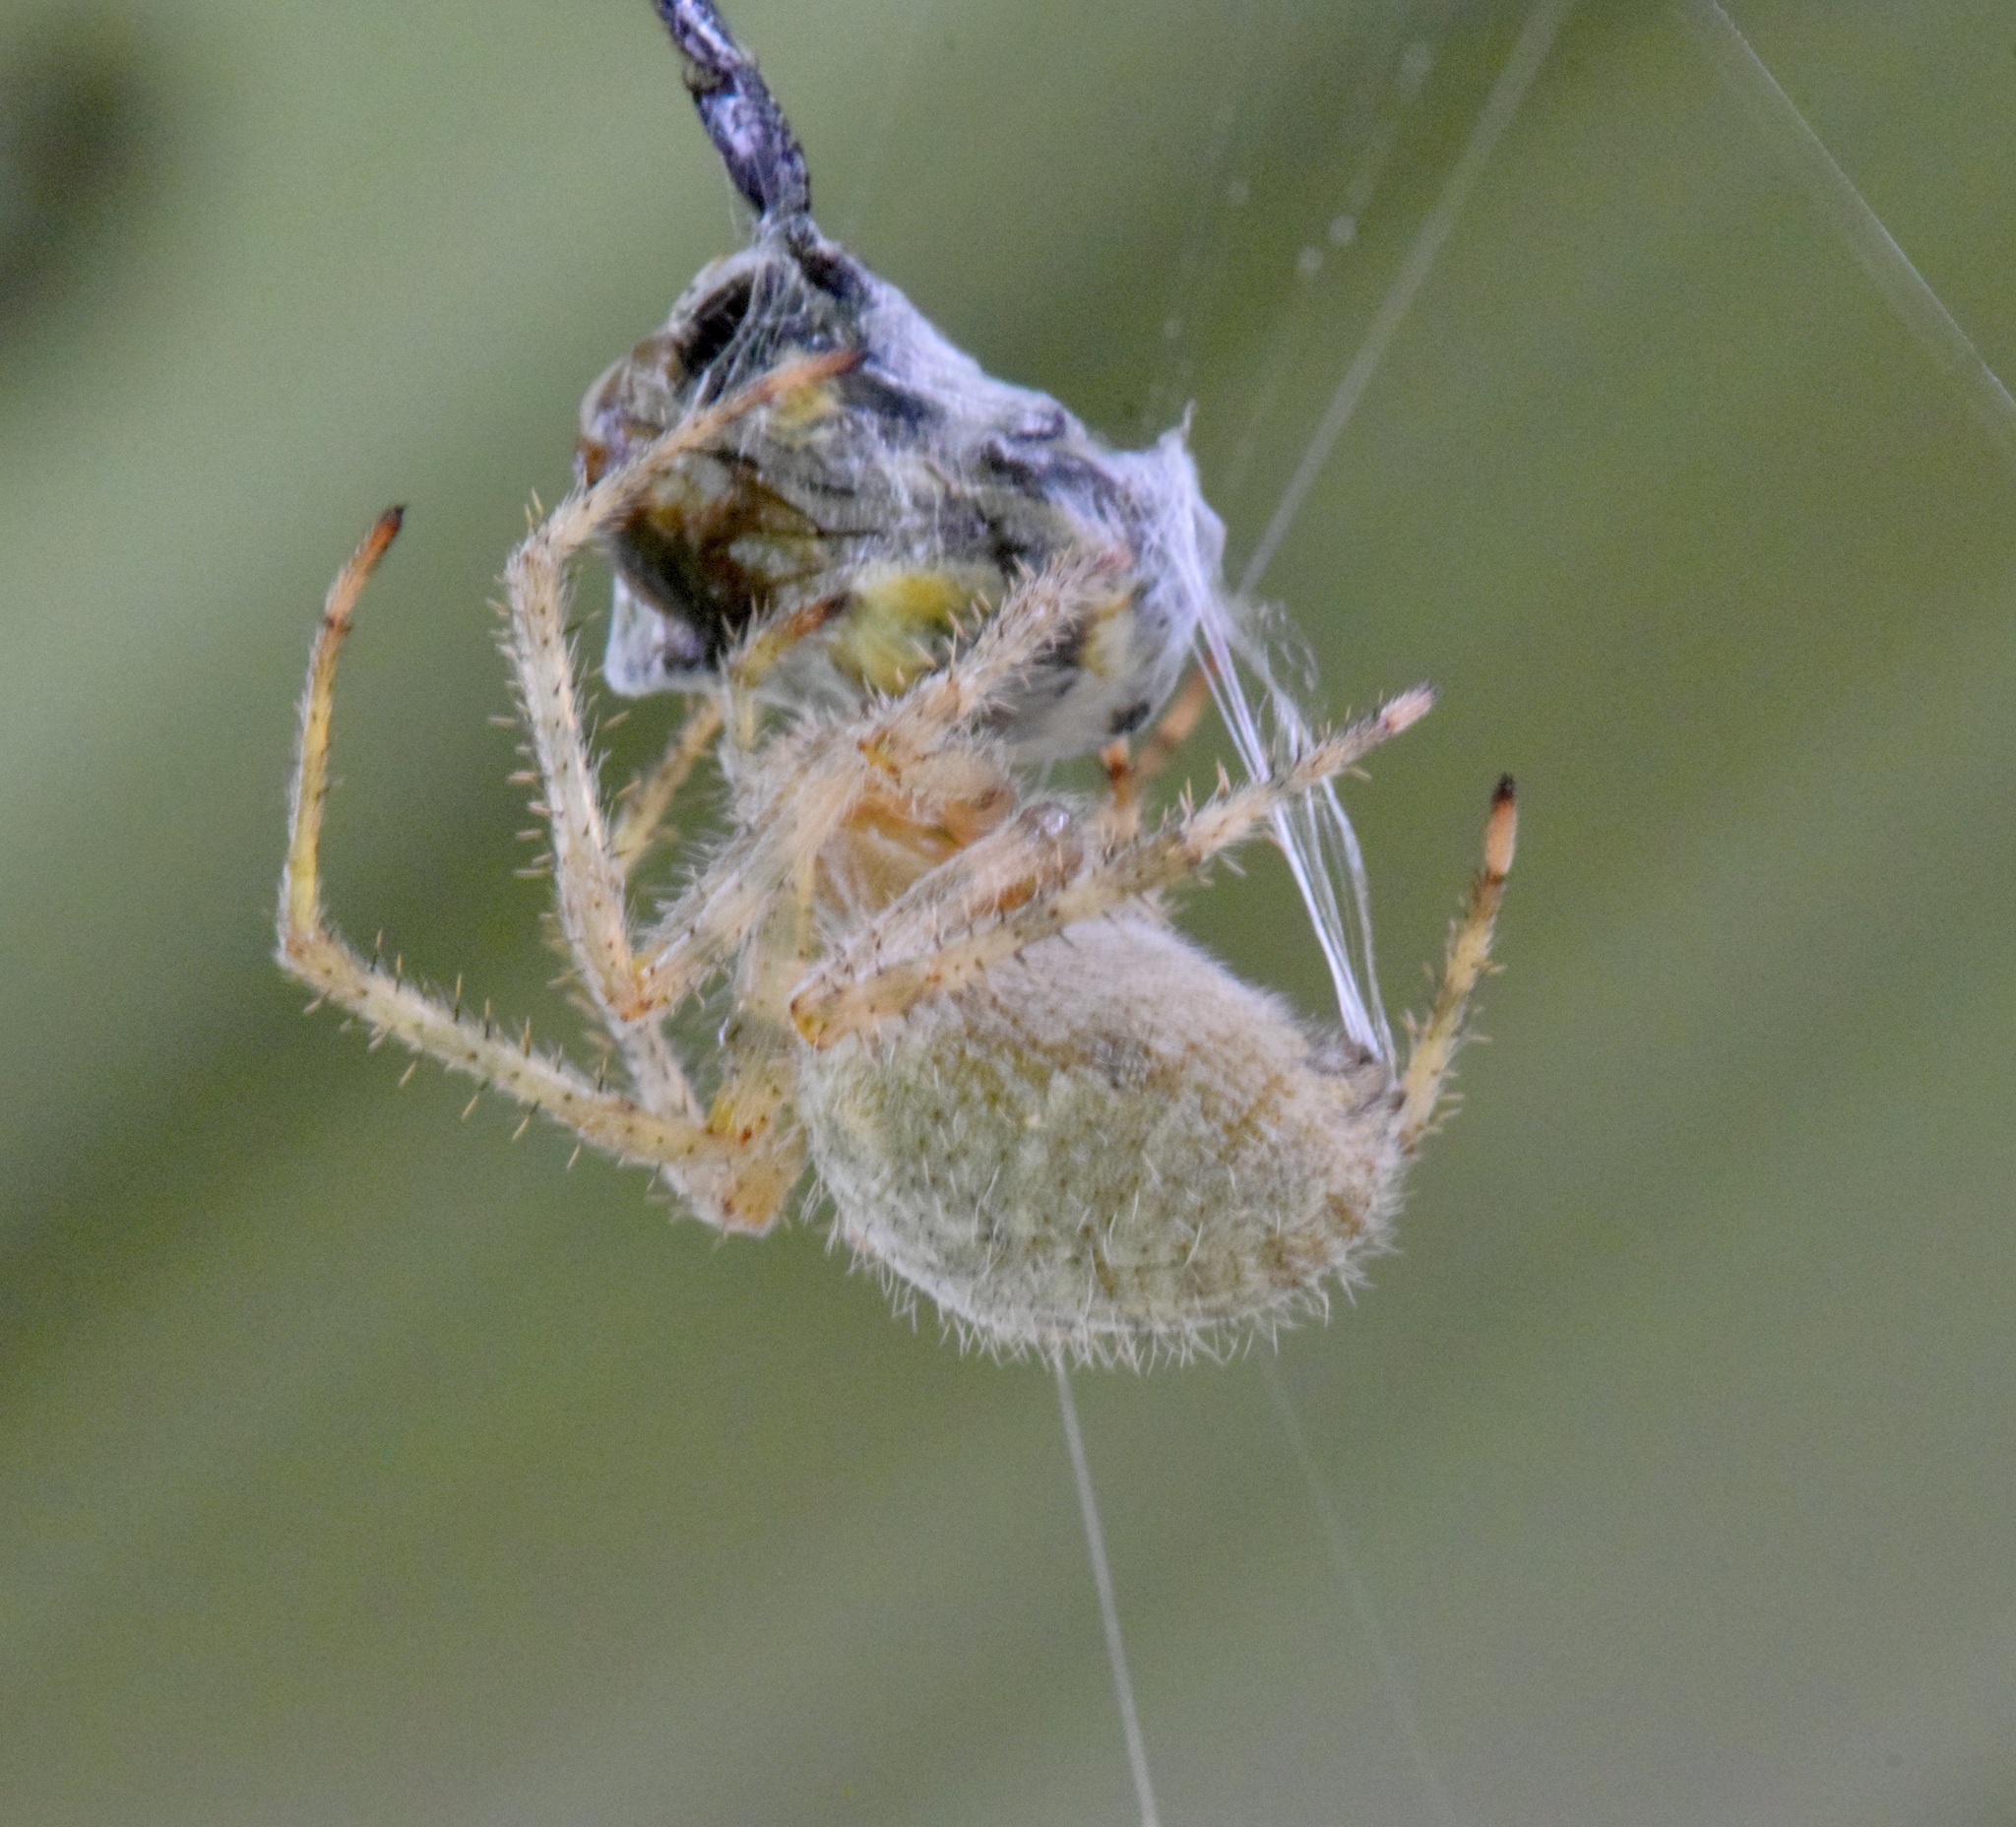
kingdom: Animalia
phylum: Arthropoda
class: Arachnida
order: Araneae
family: Araneidae
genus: Araneus
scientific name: Araneus cavaticus
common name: Barn orbweaver
